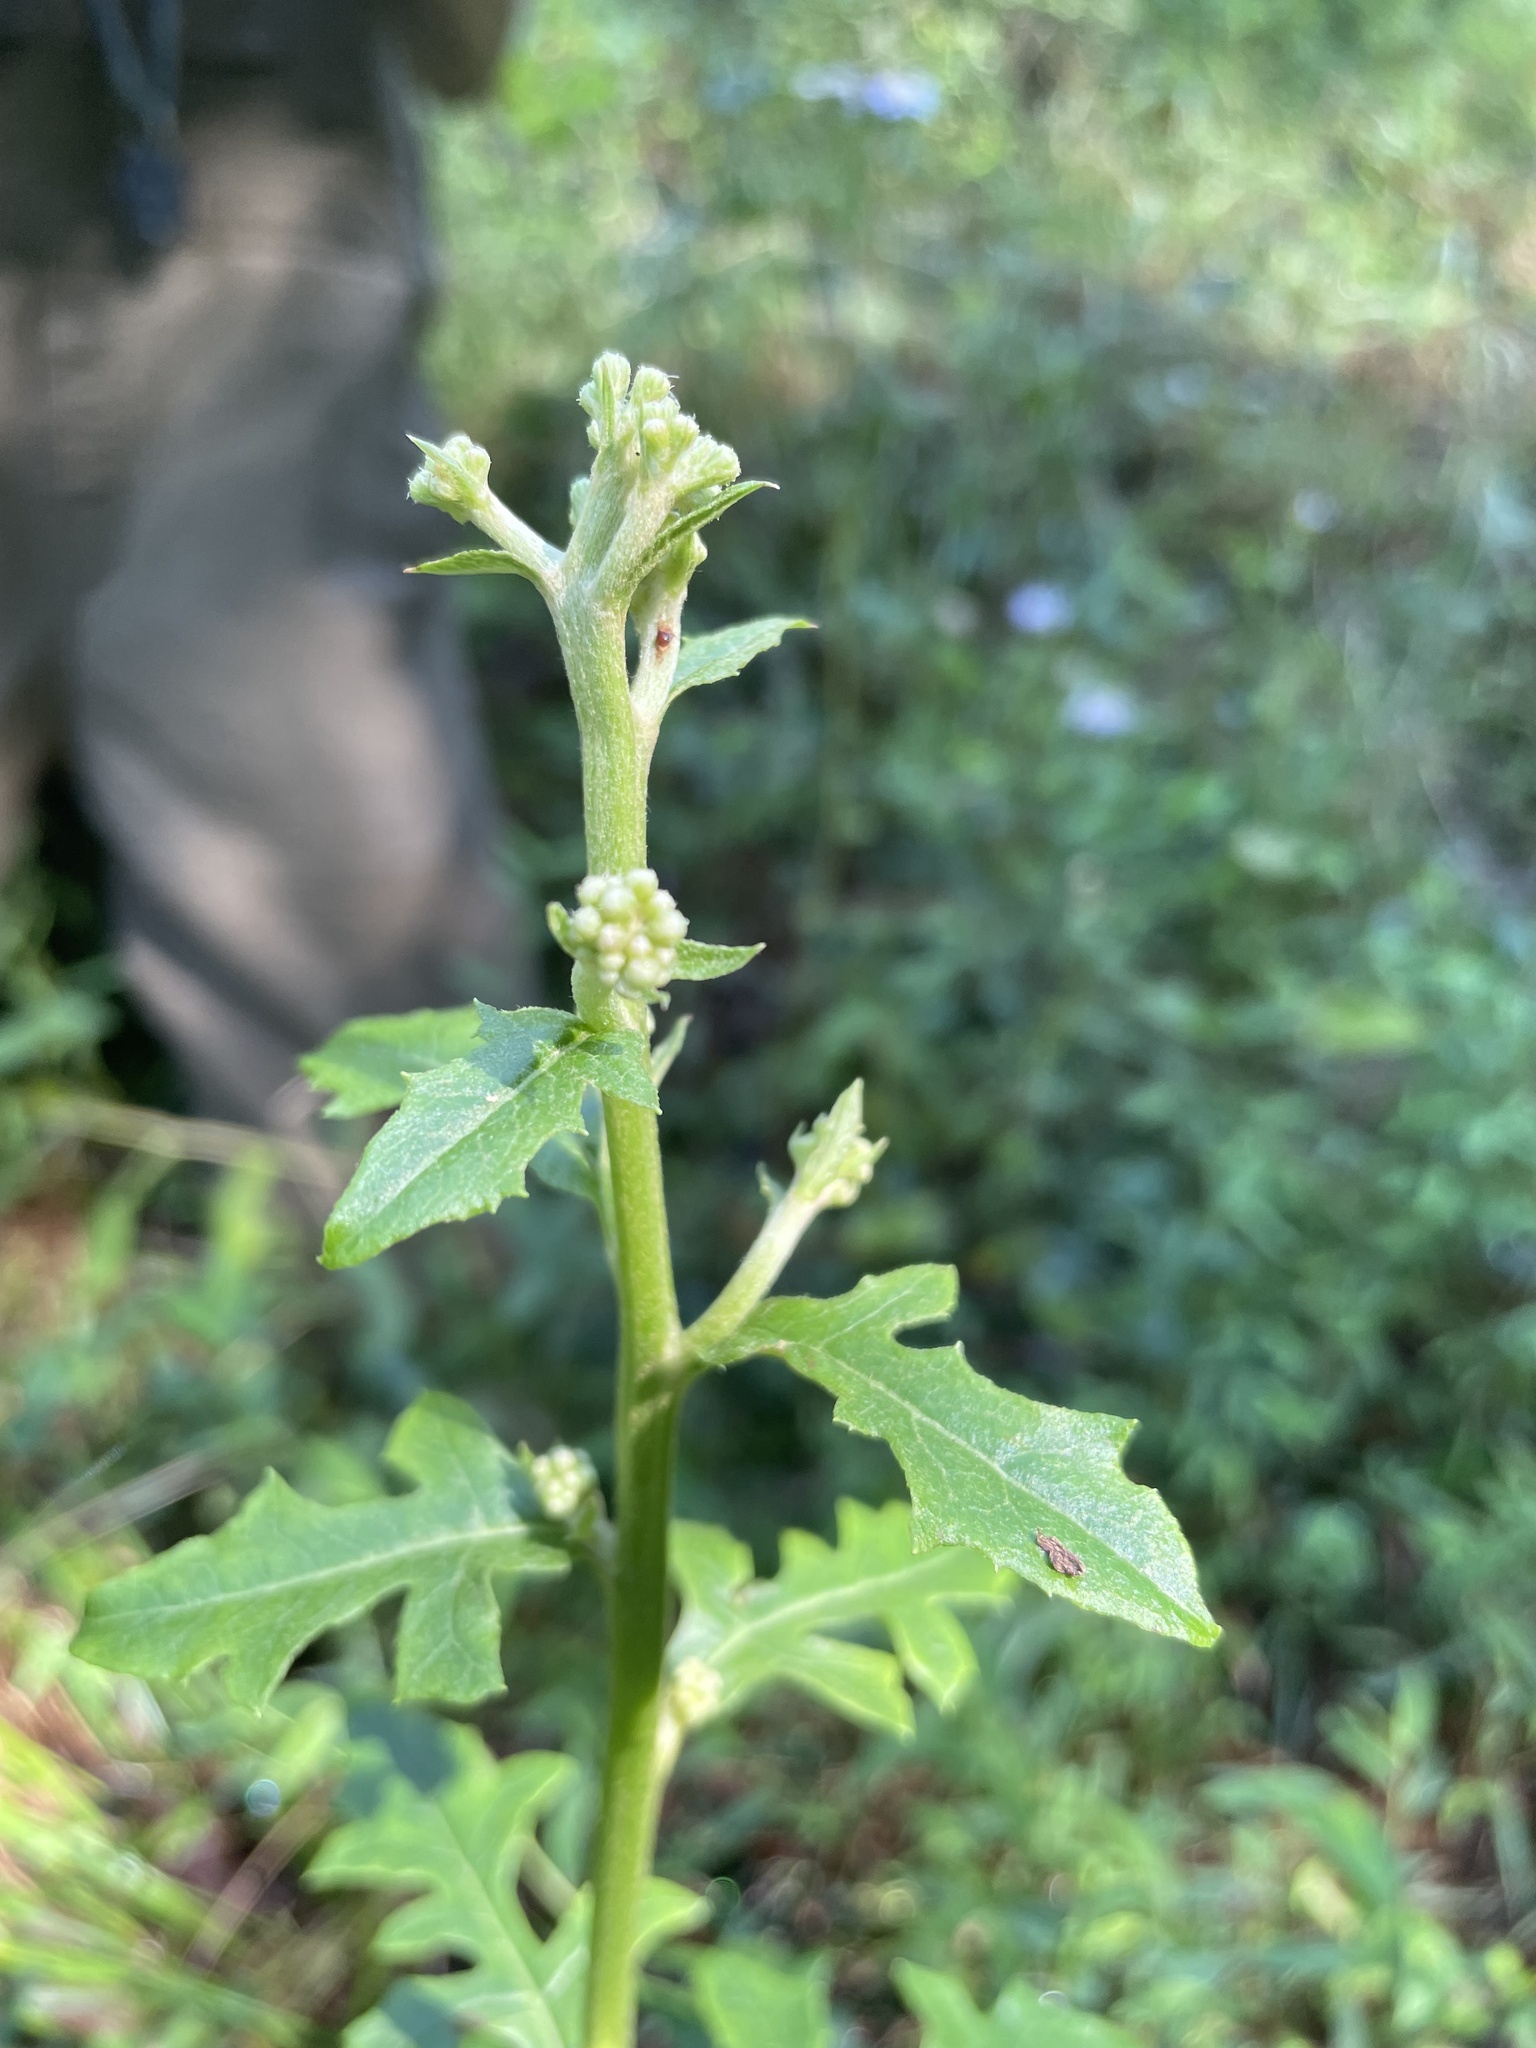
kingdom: Plantae
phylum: Tracheophyta
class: Magnoliopsida
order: Asterales
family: Asteraceae
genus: Nabalus
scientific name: Nabalus serpentarius
